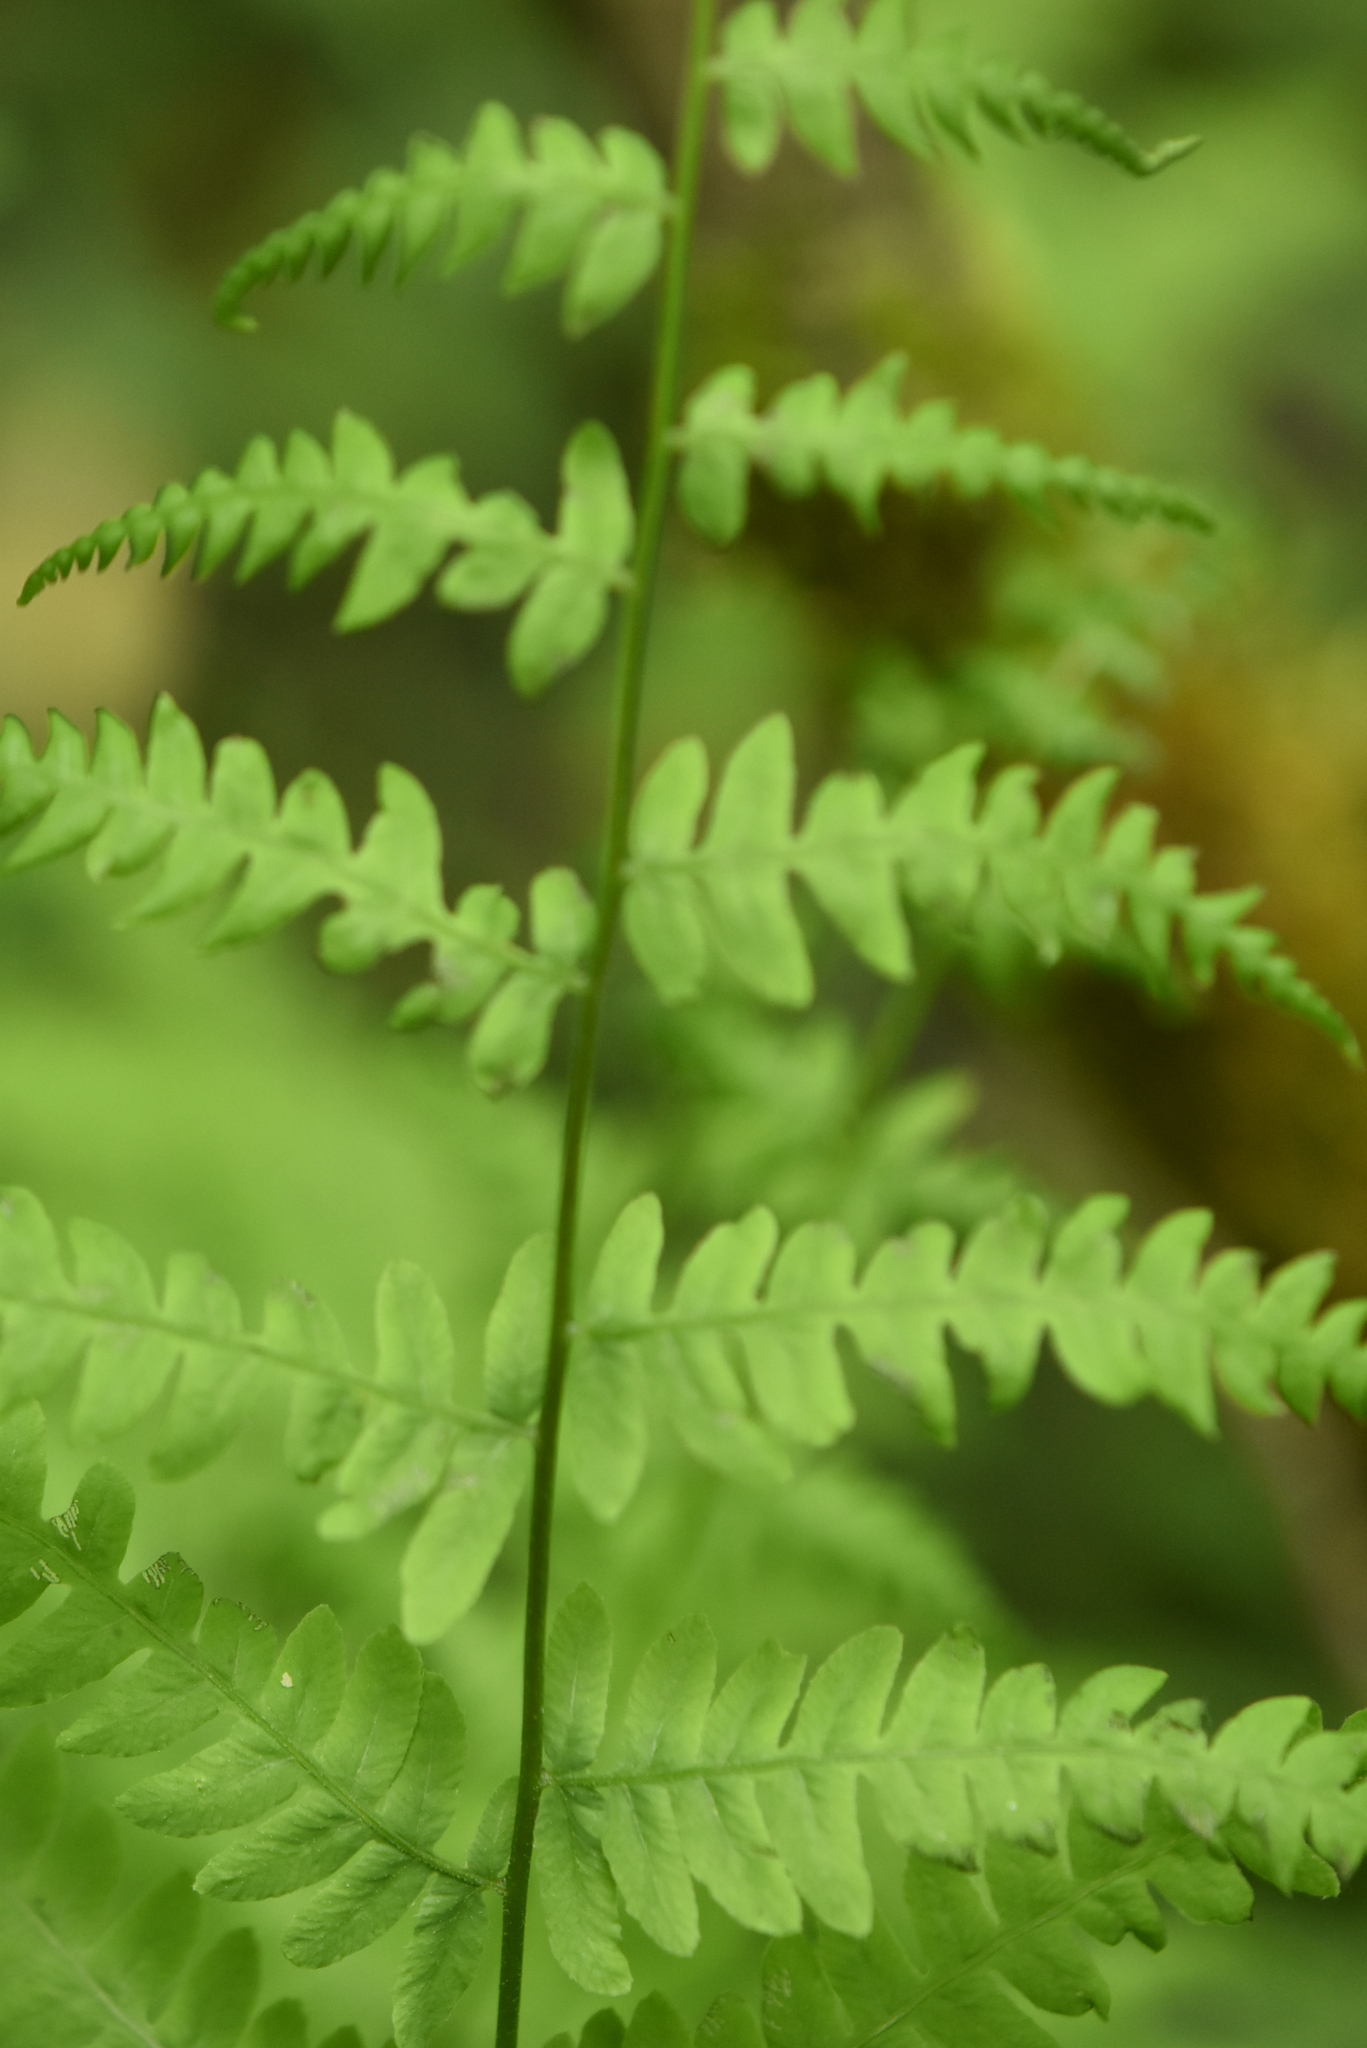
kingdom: Plantae
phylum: Tracheophyta
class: Polypodiopsida
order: Polypodiales
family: Thelypteridaceae
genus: Thelypteris
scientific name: Thelypteris palustris
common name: Marsh fern
